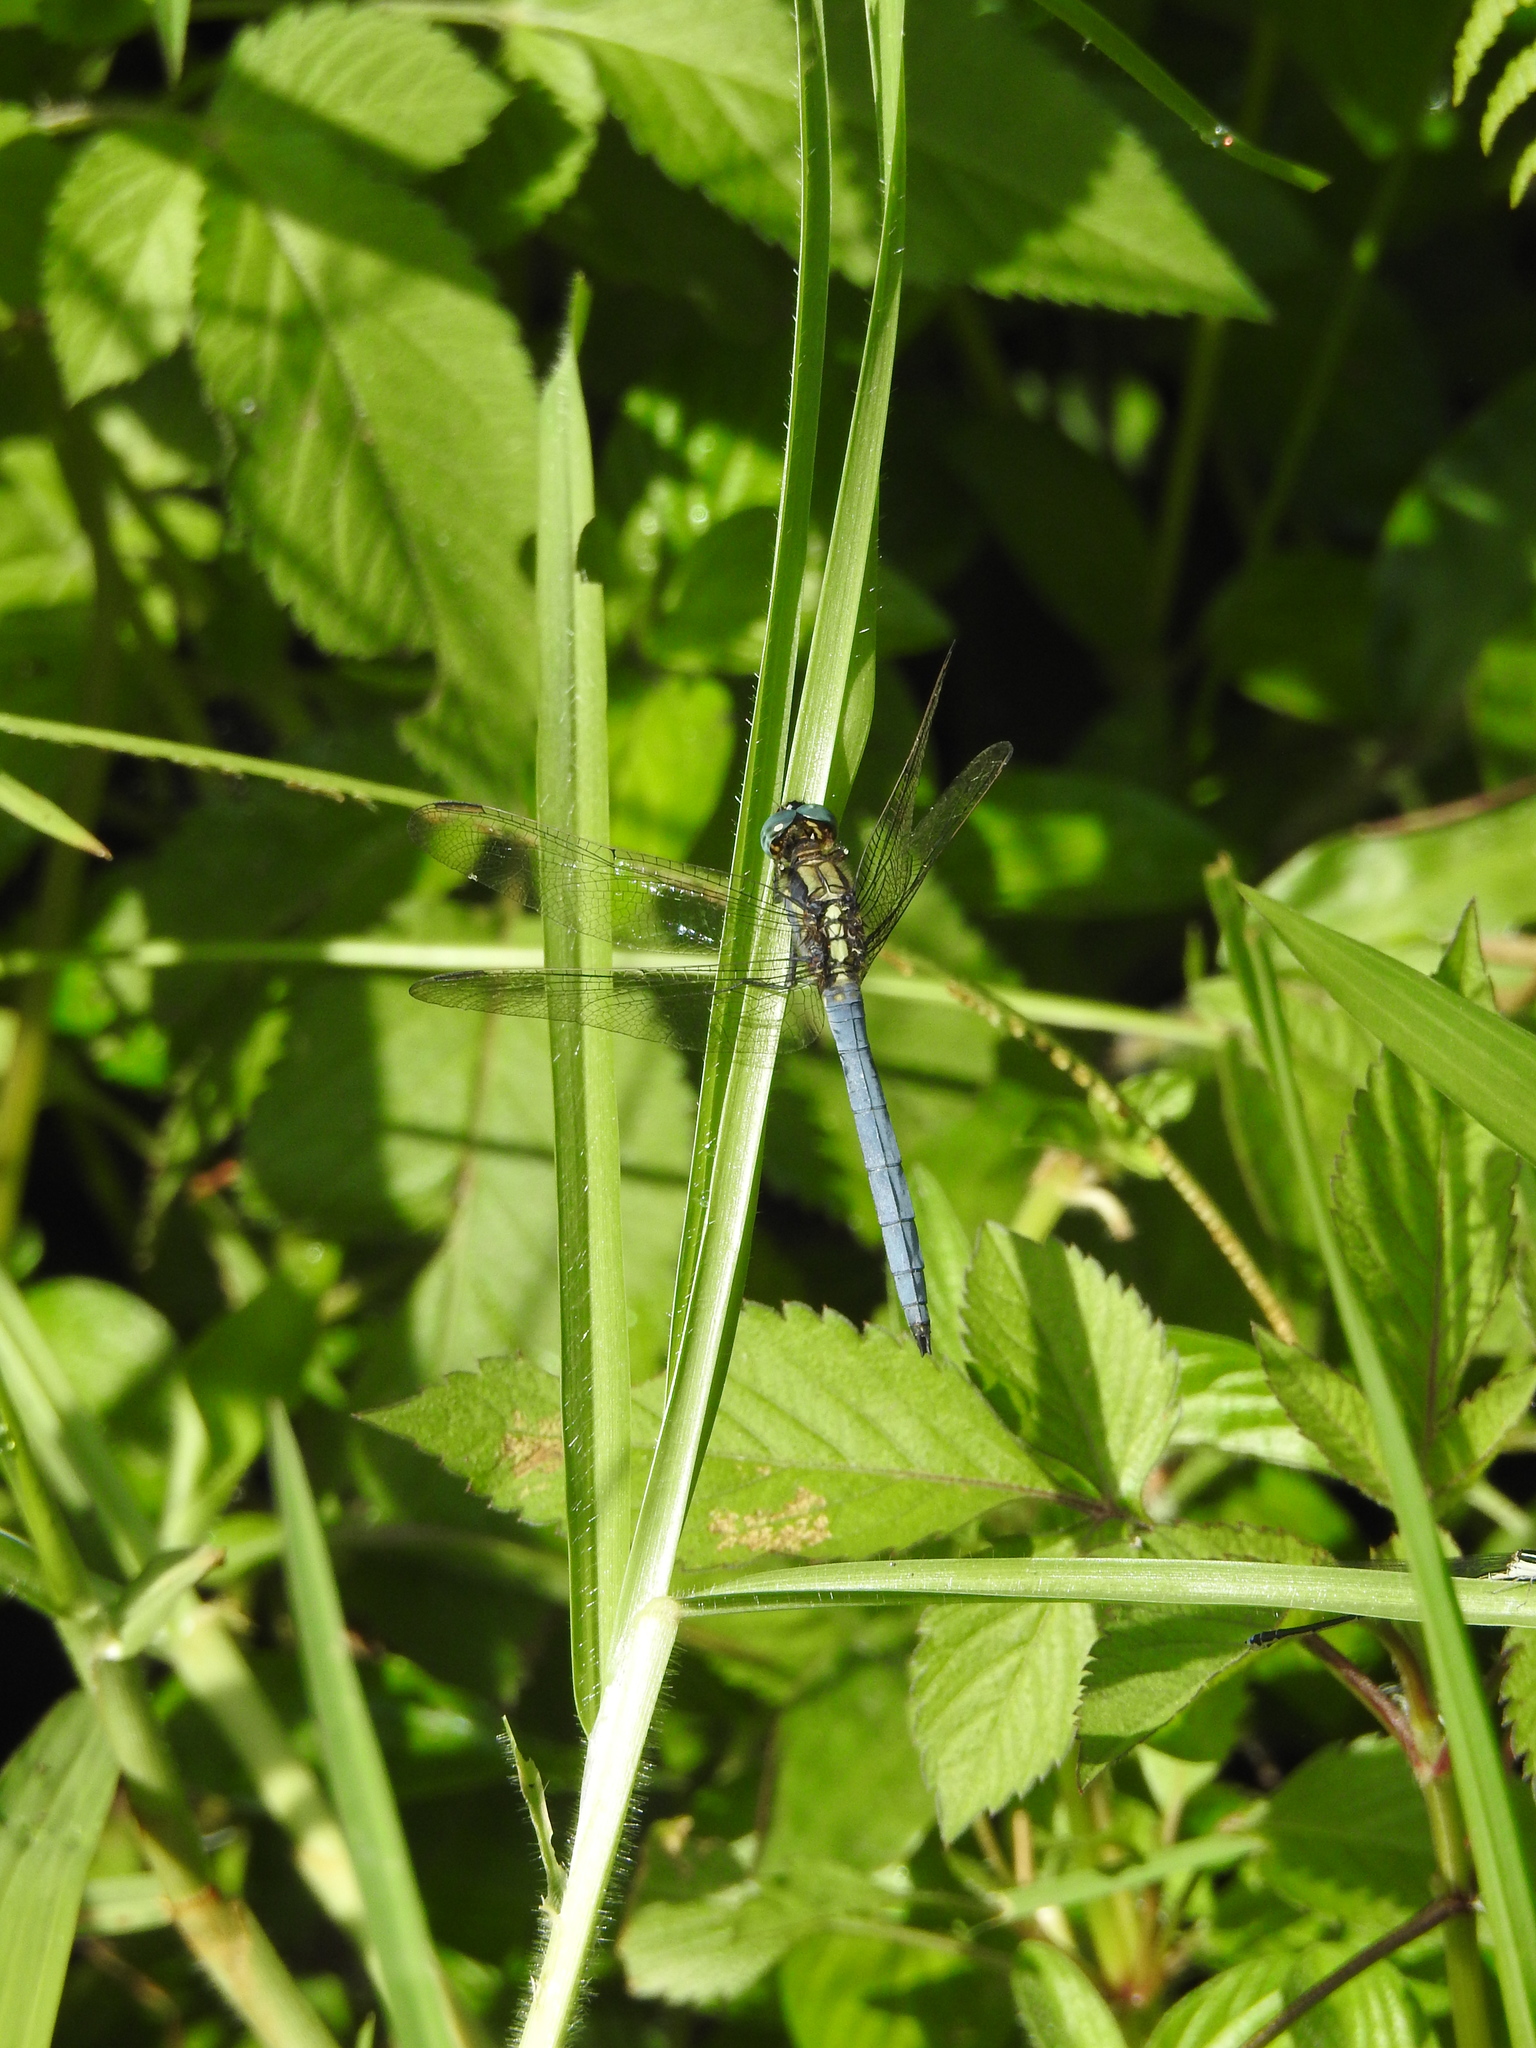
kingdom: Animalia
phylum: Arthropoda
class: Insecta
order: Odonata
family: Libellulidae
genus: Orthetrum
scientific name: Orthetrum luzonicum
